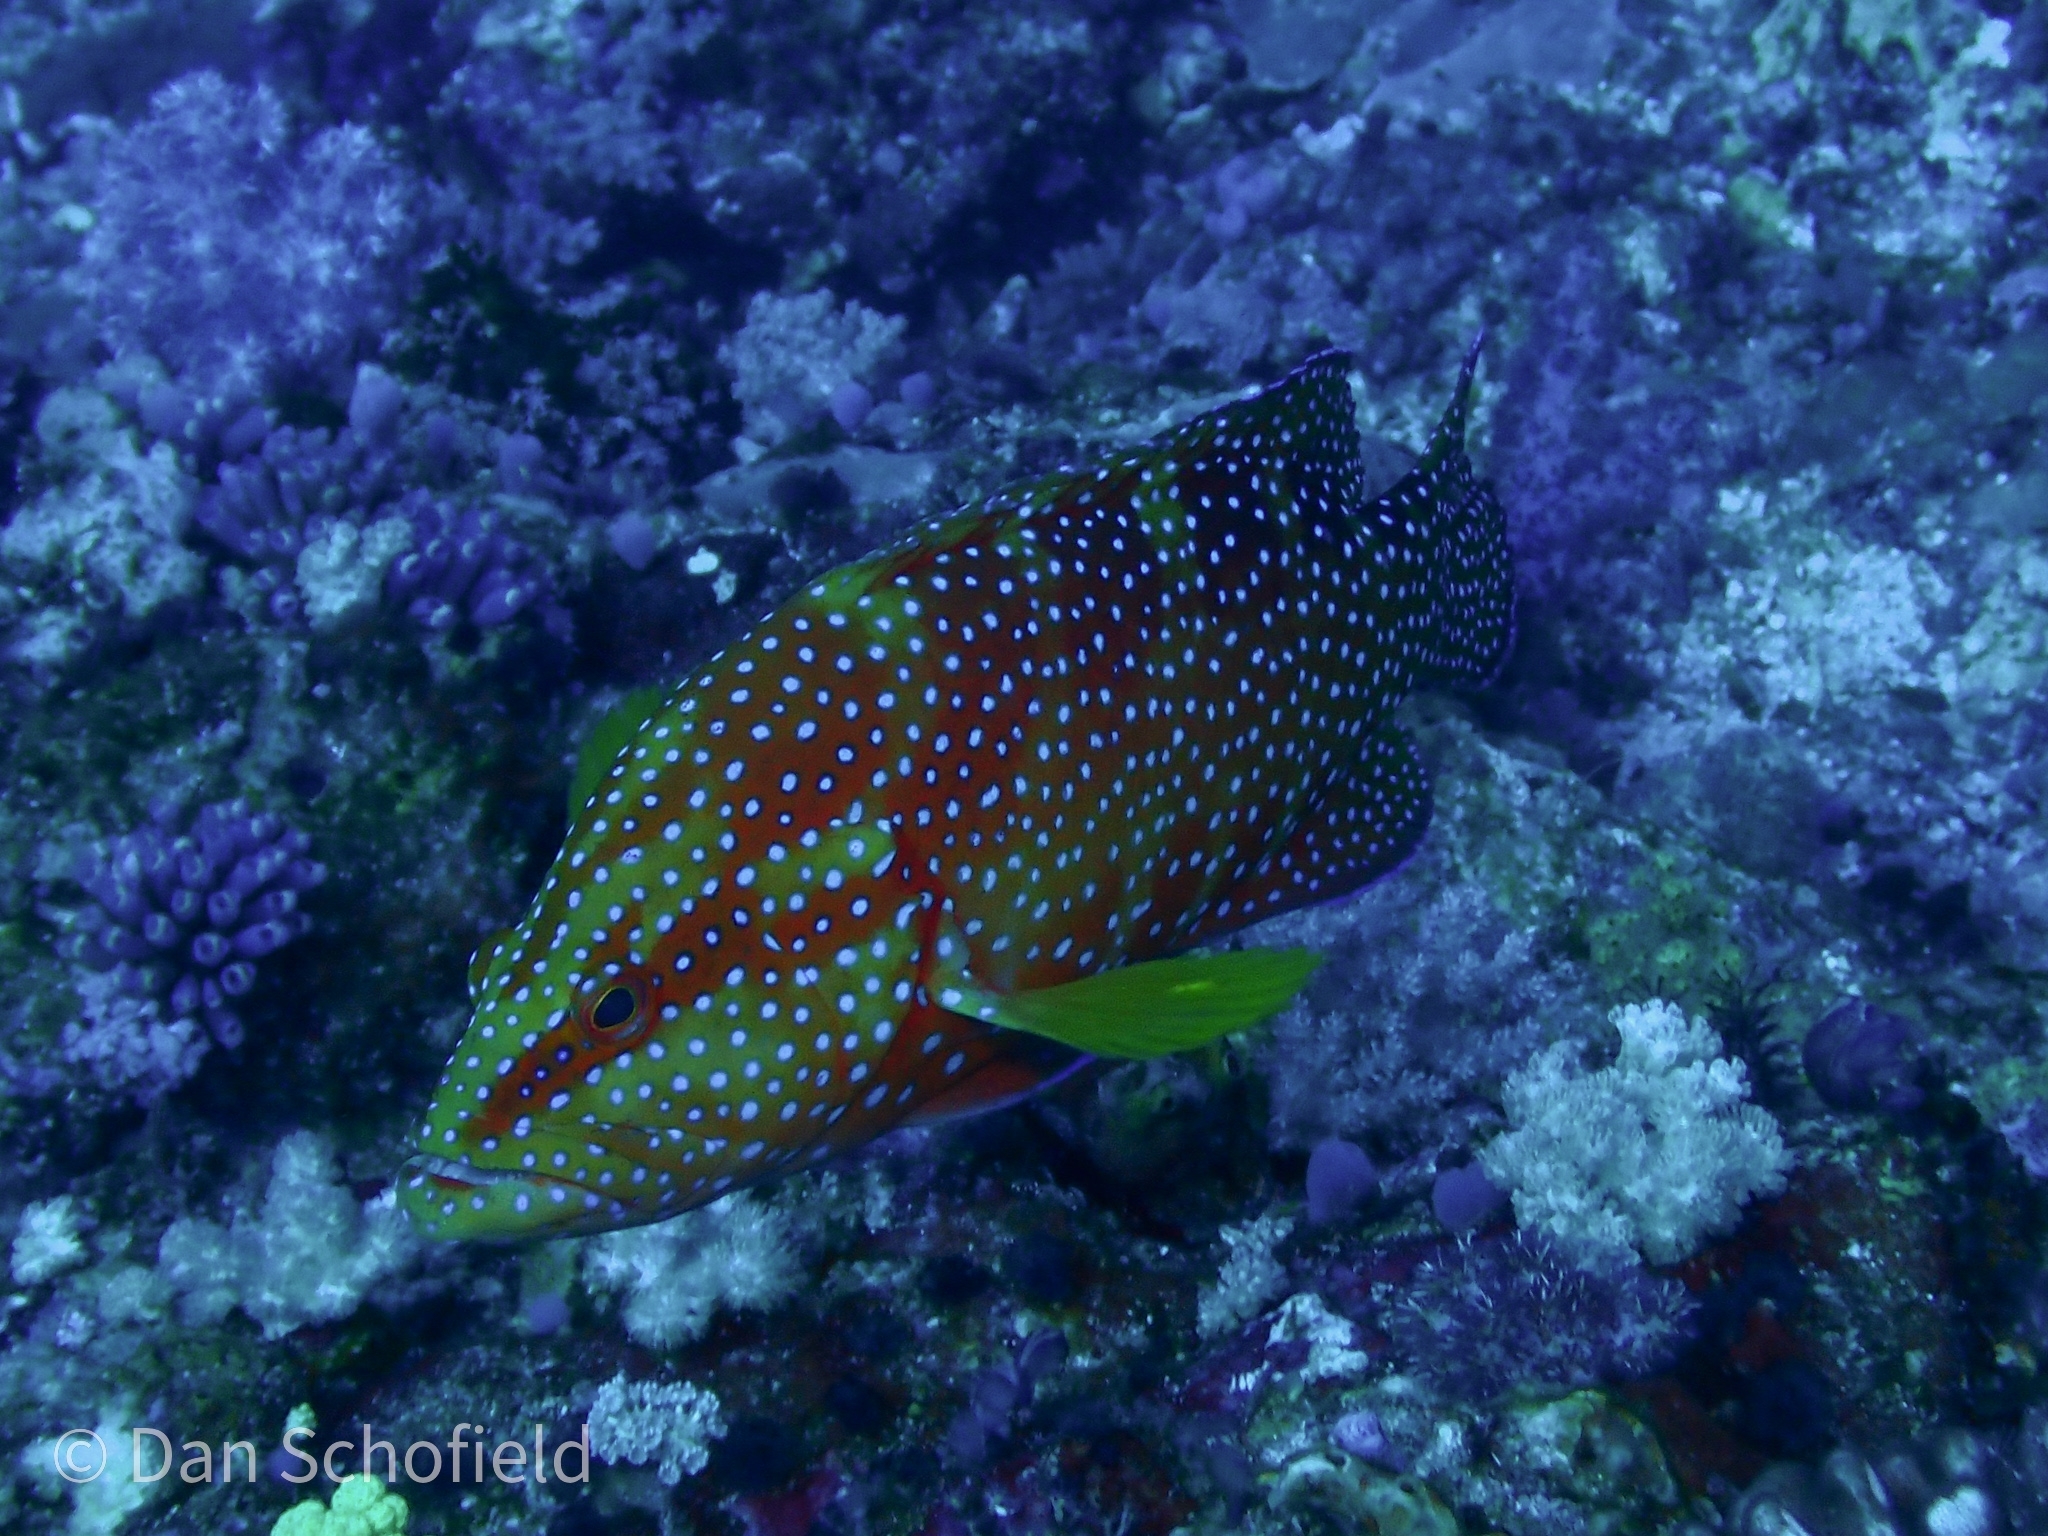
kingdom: Animalia
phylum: Chordata
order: Perciformes
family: Serranidae
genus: Cephalopholis
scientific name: Cephalopholis miniata
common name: Coral hind
